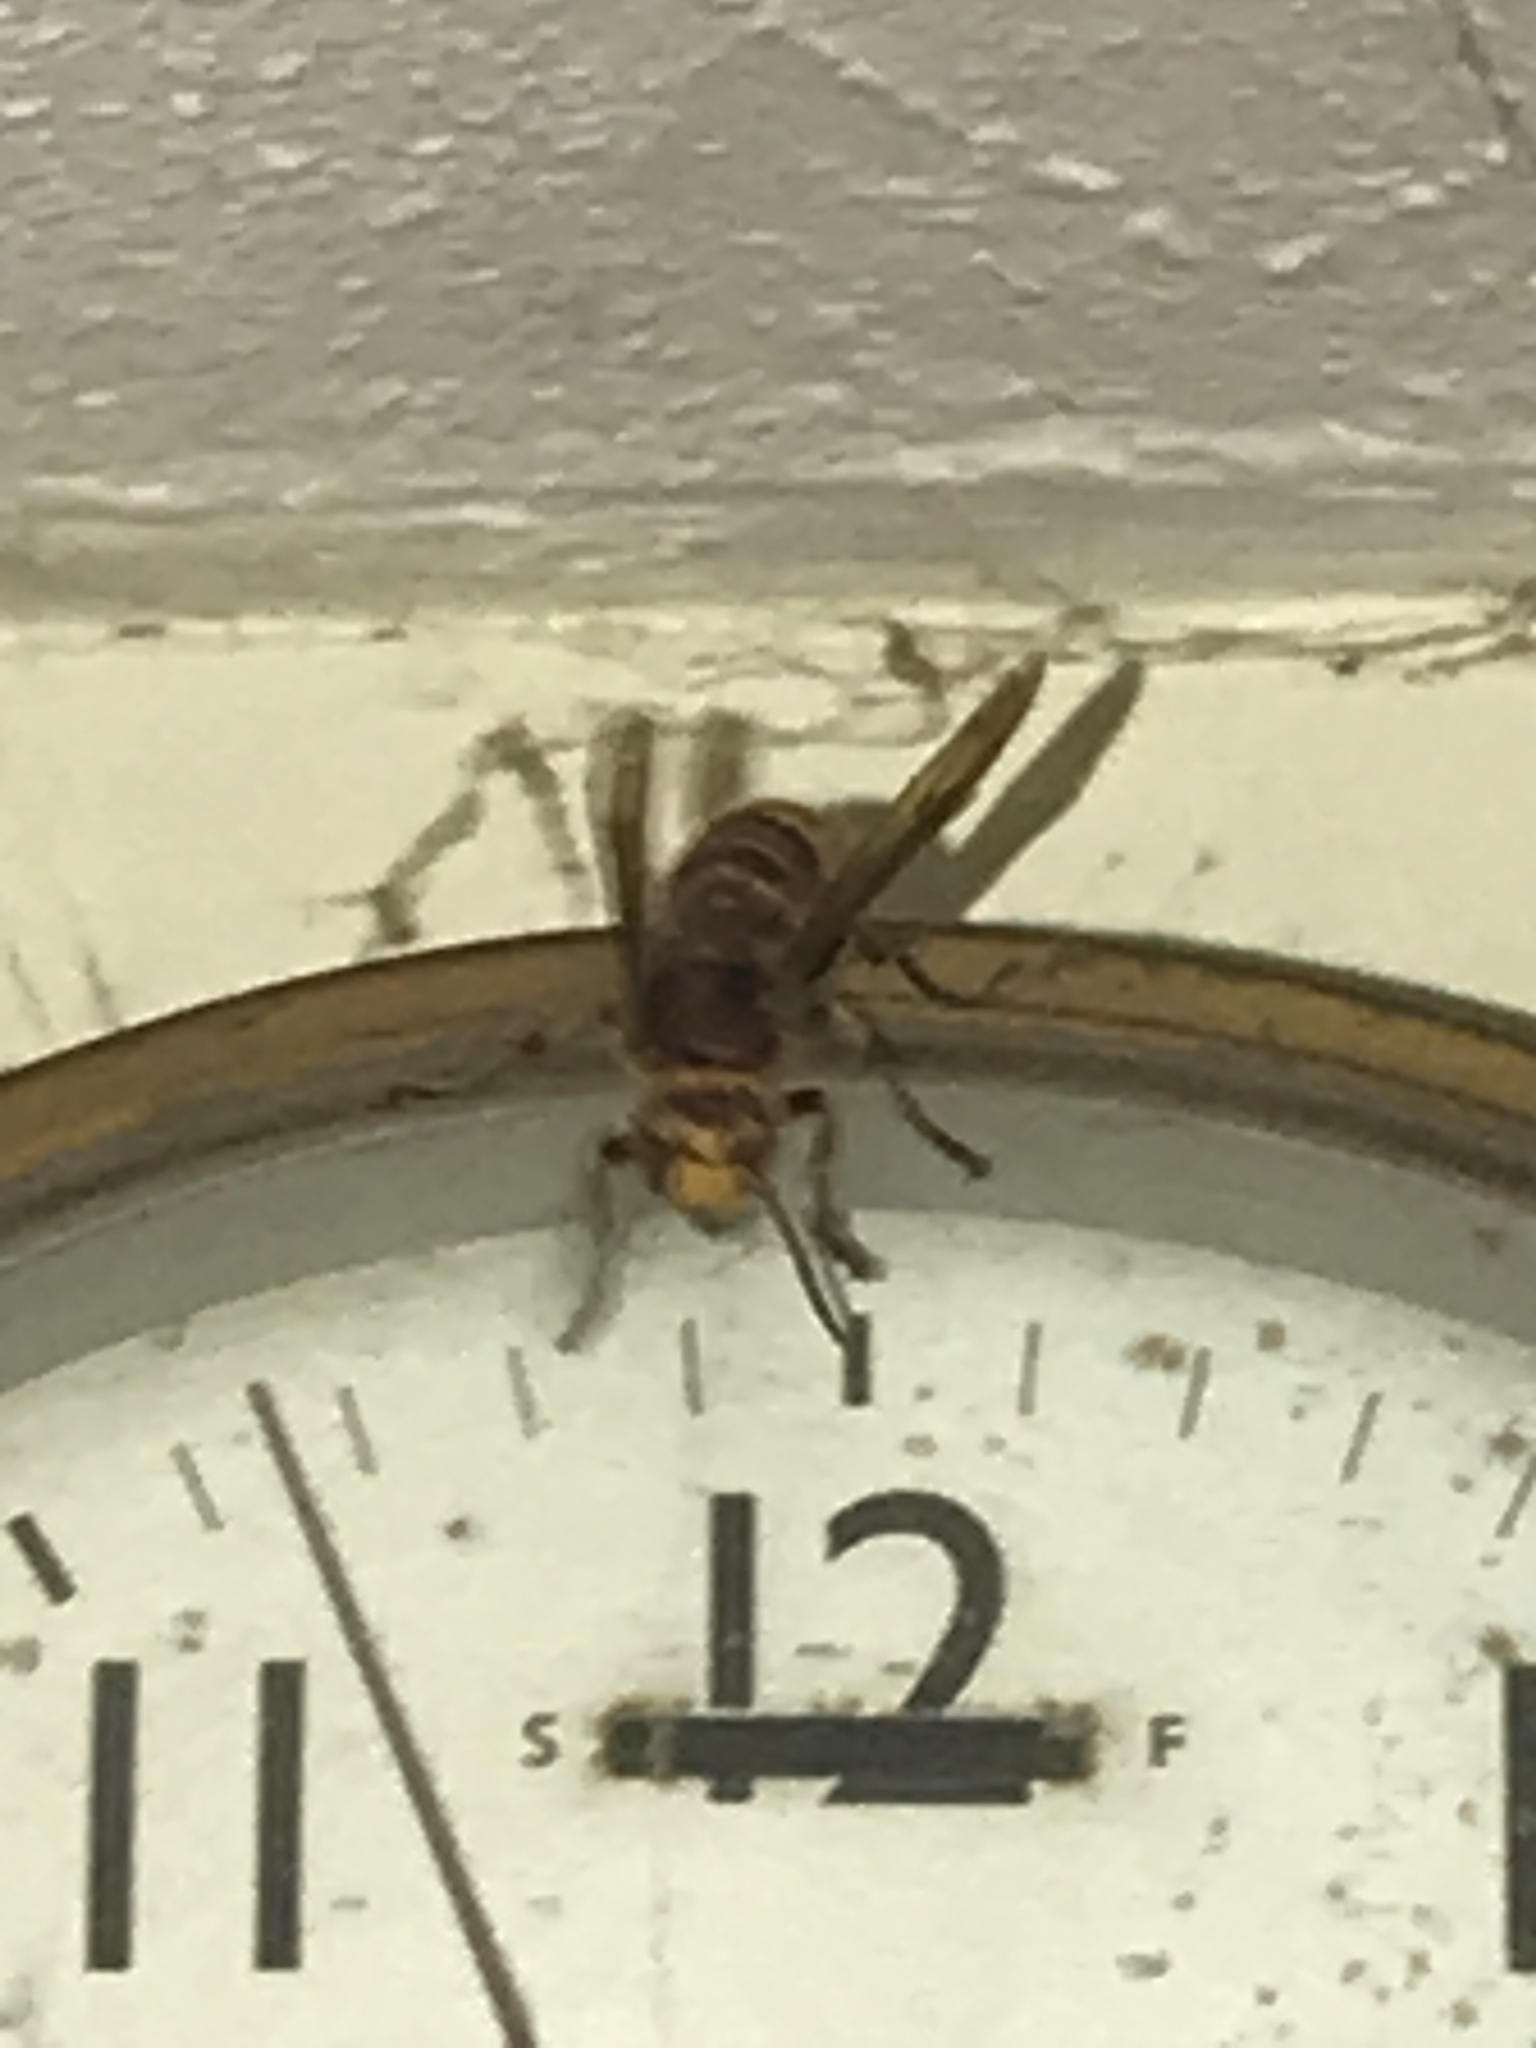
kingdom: Animalia
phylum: Arthropoda
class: Insecta
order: Hymenoptera
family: Vespidae
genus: Vespa
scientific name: Vespa crabro
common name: Hornet
